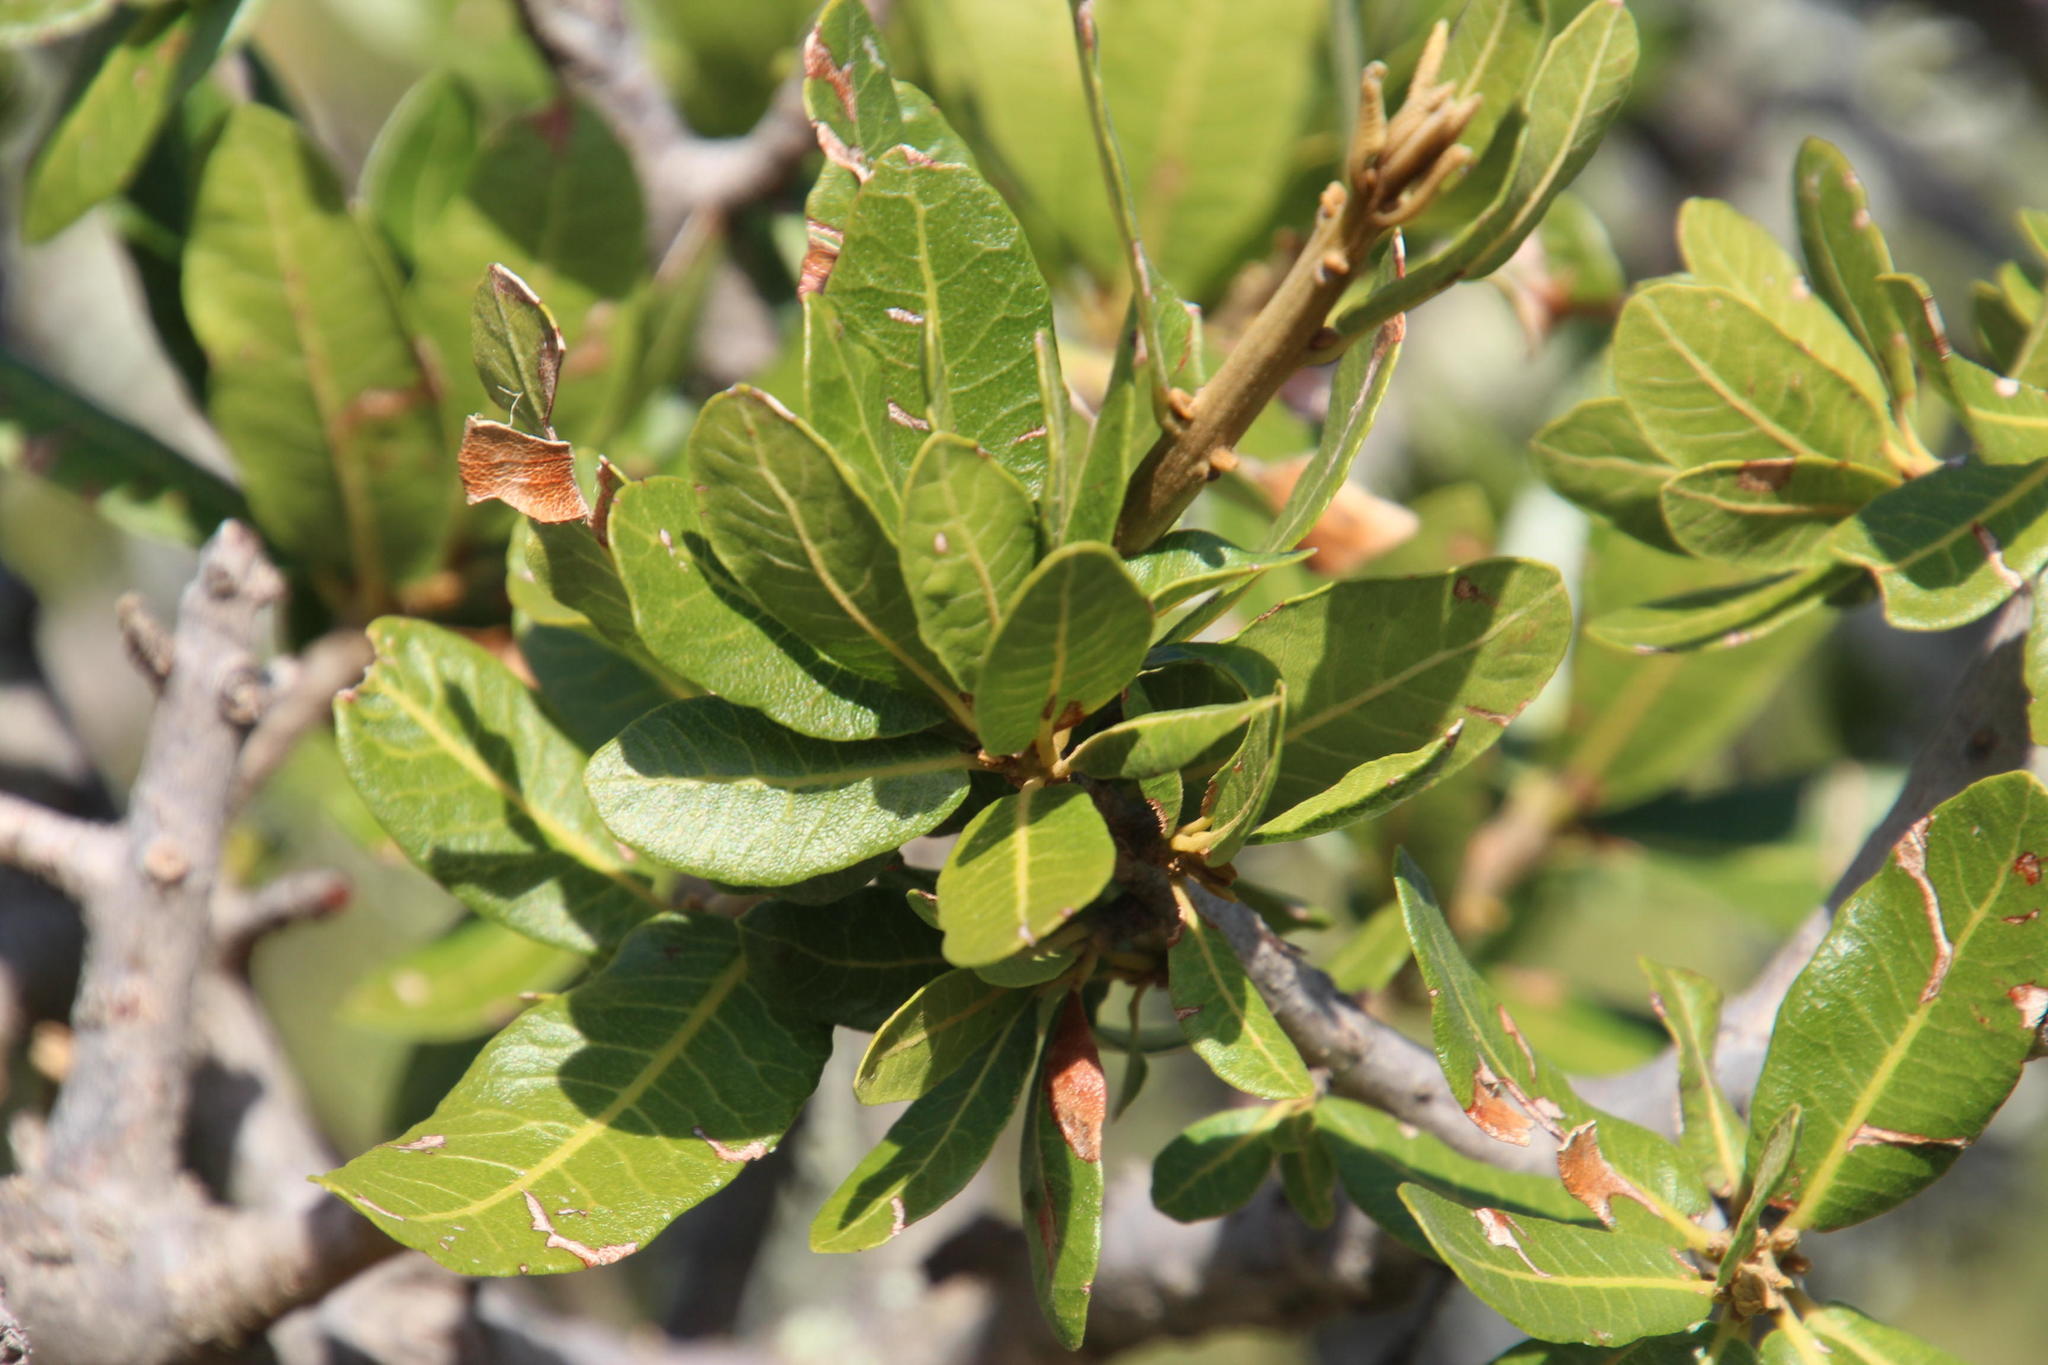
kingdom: Plantae
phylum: Tracheophyta
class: Magnoliopsida
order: Sapindales
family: Sapindaceae
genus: Pappea
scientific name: Pappea capensis
